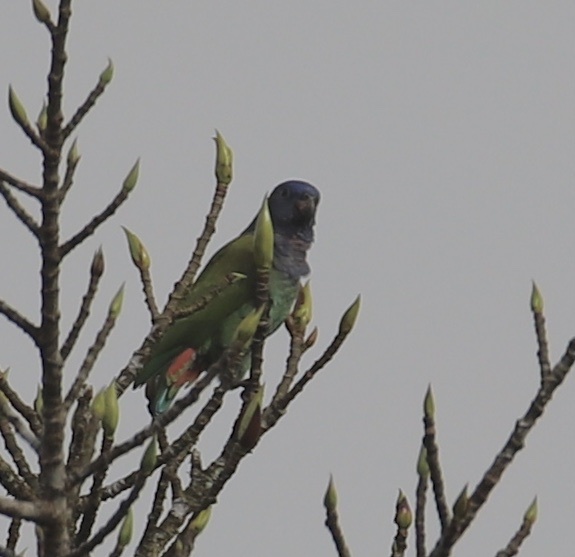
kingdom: Animalia
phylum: Chordata
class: Aves
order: Psittaciformes
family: Psittacidae
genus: Pionus
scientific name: Pionus menstruus
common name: Blue-headed parrot
